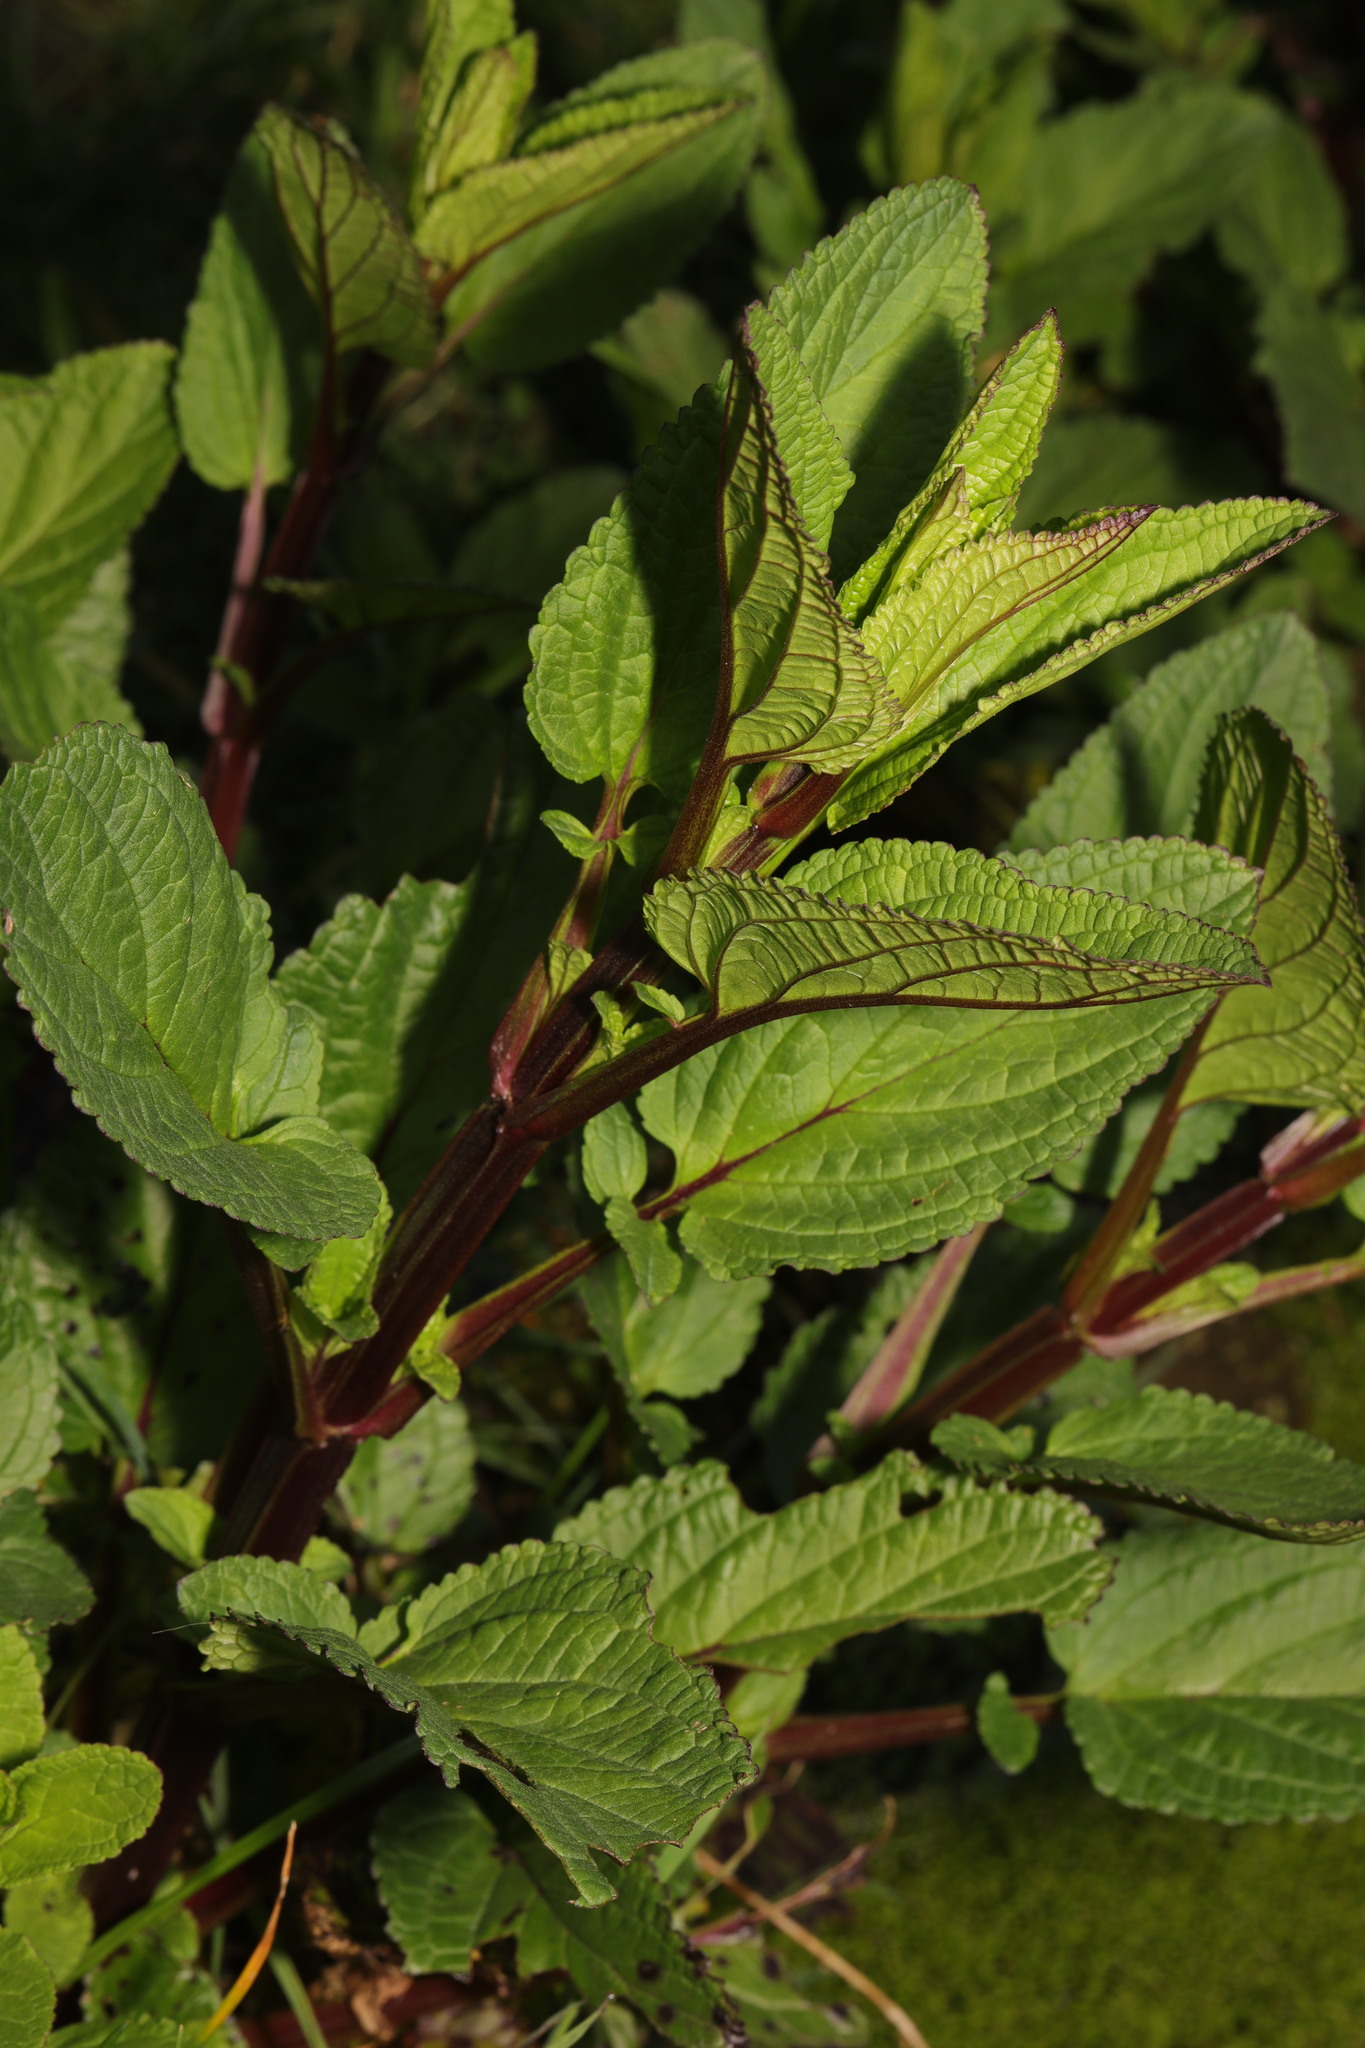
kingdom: Plantae
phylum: Tracheophyta
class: Magnoliopsida
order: Lamiales
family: Scrophulariaceae
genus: Scrophularia
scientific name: Scrophularia auriculata
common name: Water betony
